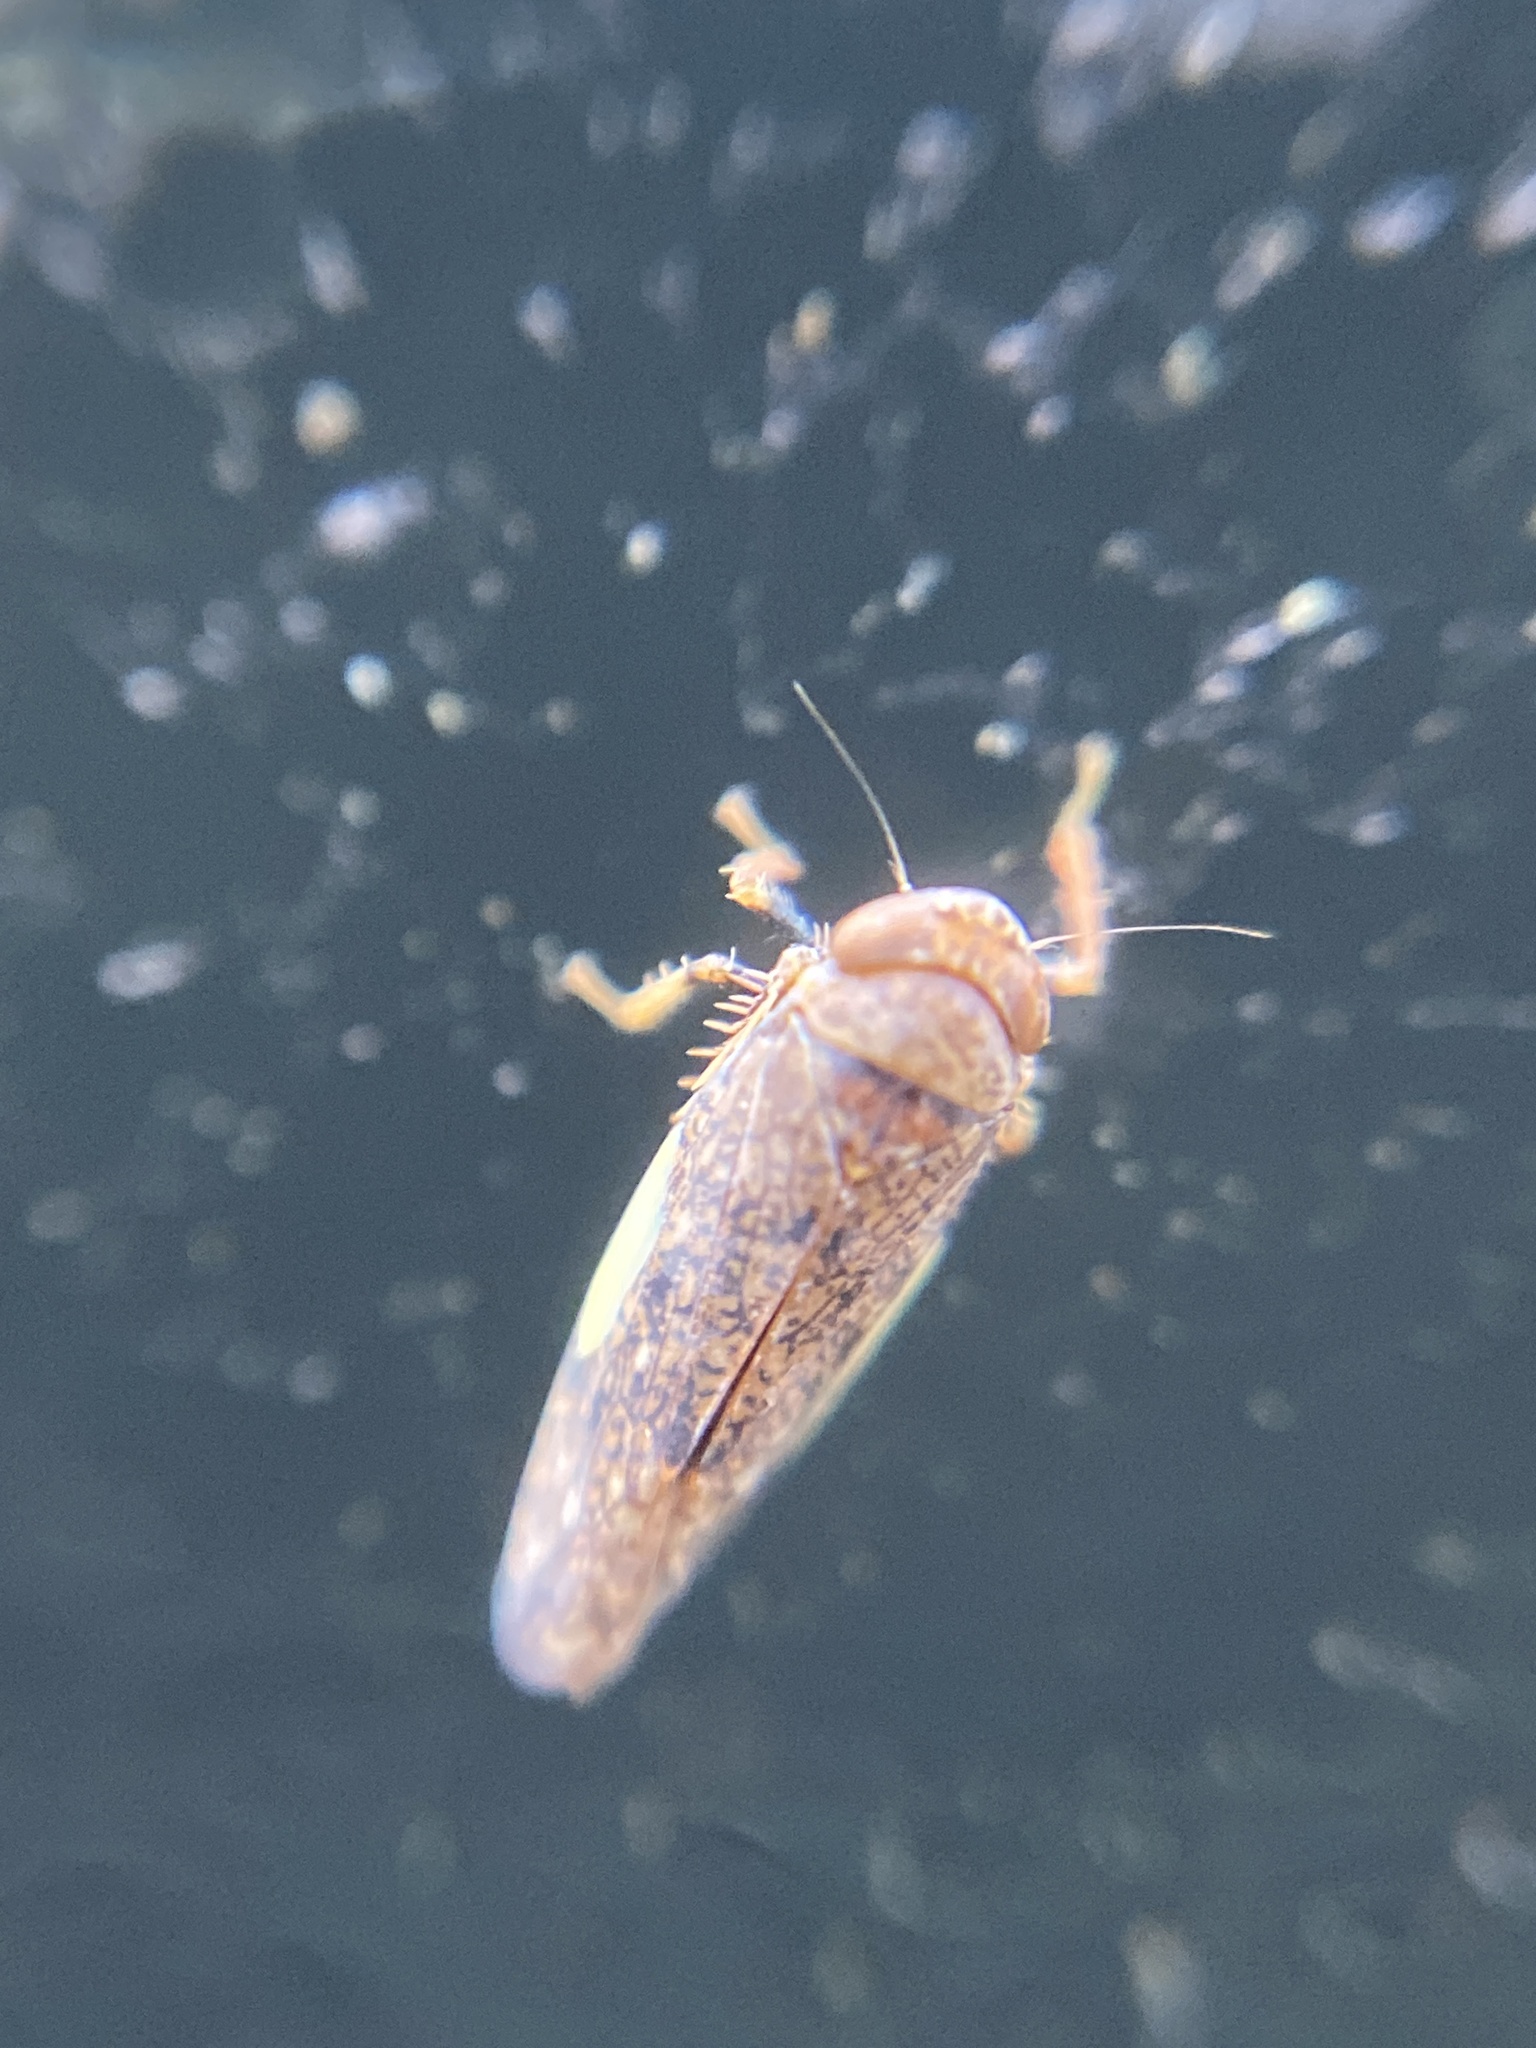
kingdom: Animalia
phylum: Arthropoda
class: Insecta
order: Hemiptera
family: Cicadellidae
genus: Orientus
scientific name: Orientus ishidae
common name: Japanese leafhopper
